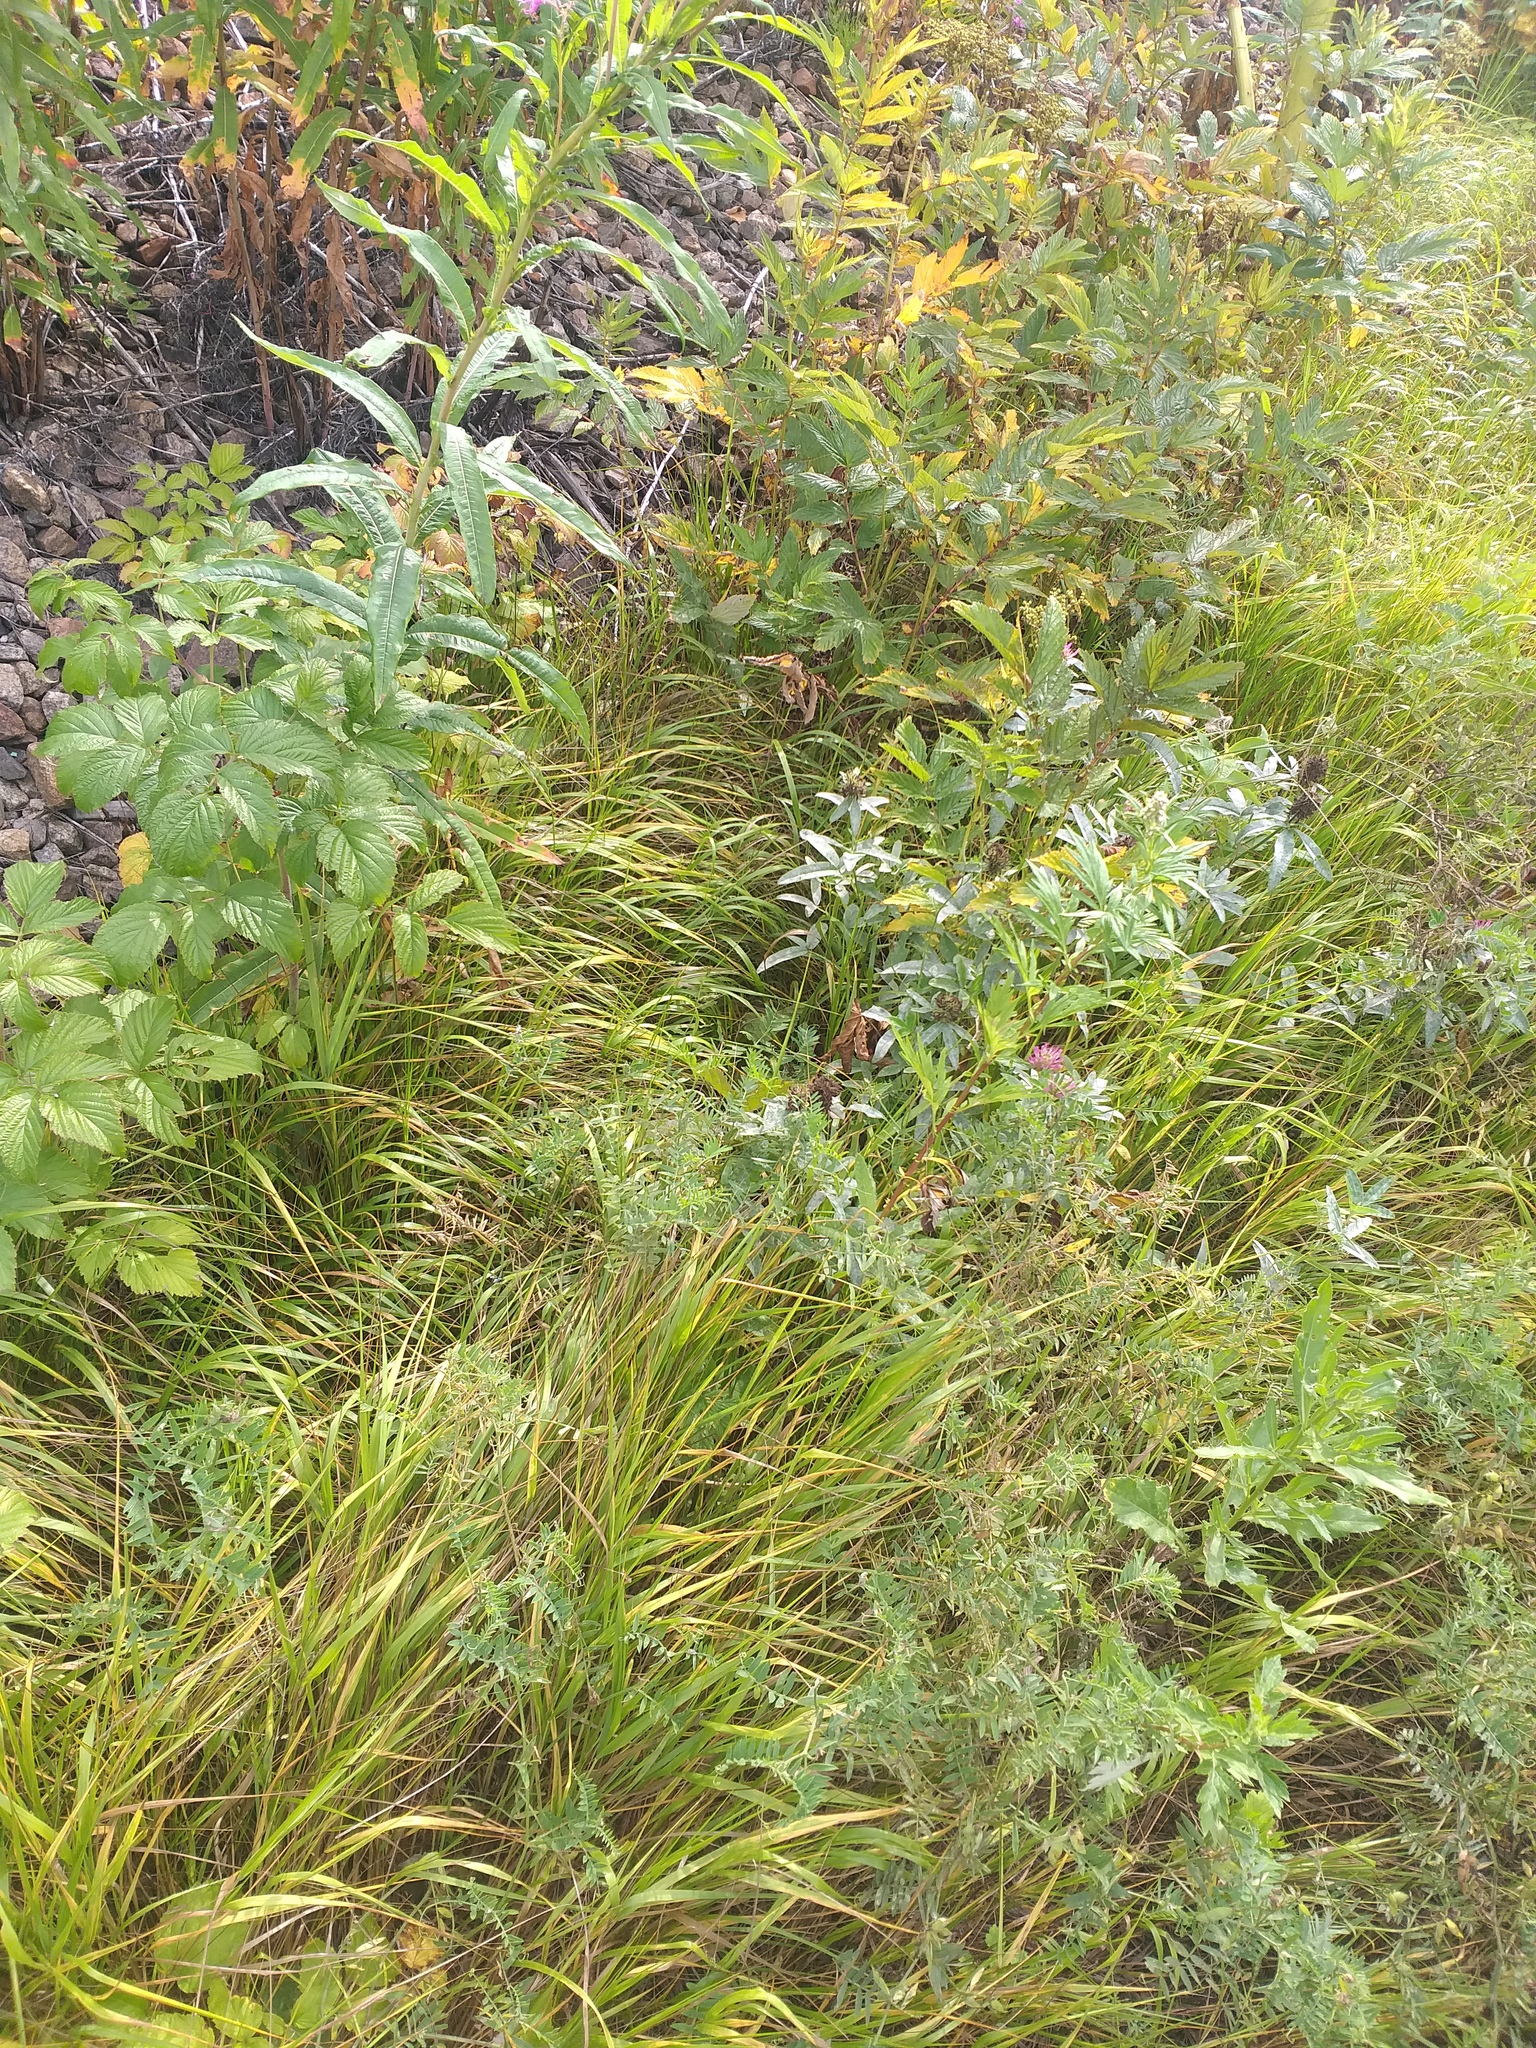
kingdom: Plantae
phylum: Tracheophyta
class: Liliopsida
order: Poales
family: Poaceae
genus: Calamagrostis
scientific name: Calamagrostis canescens
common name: Purple small-reed
